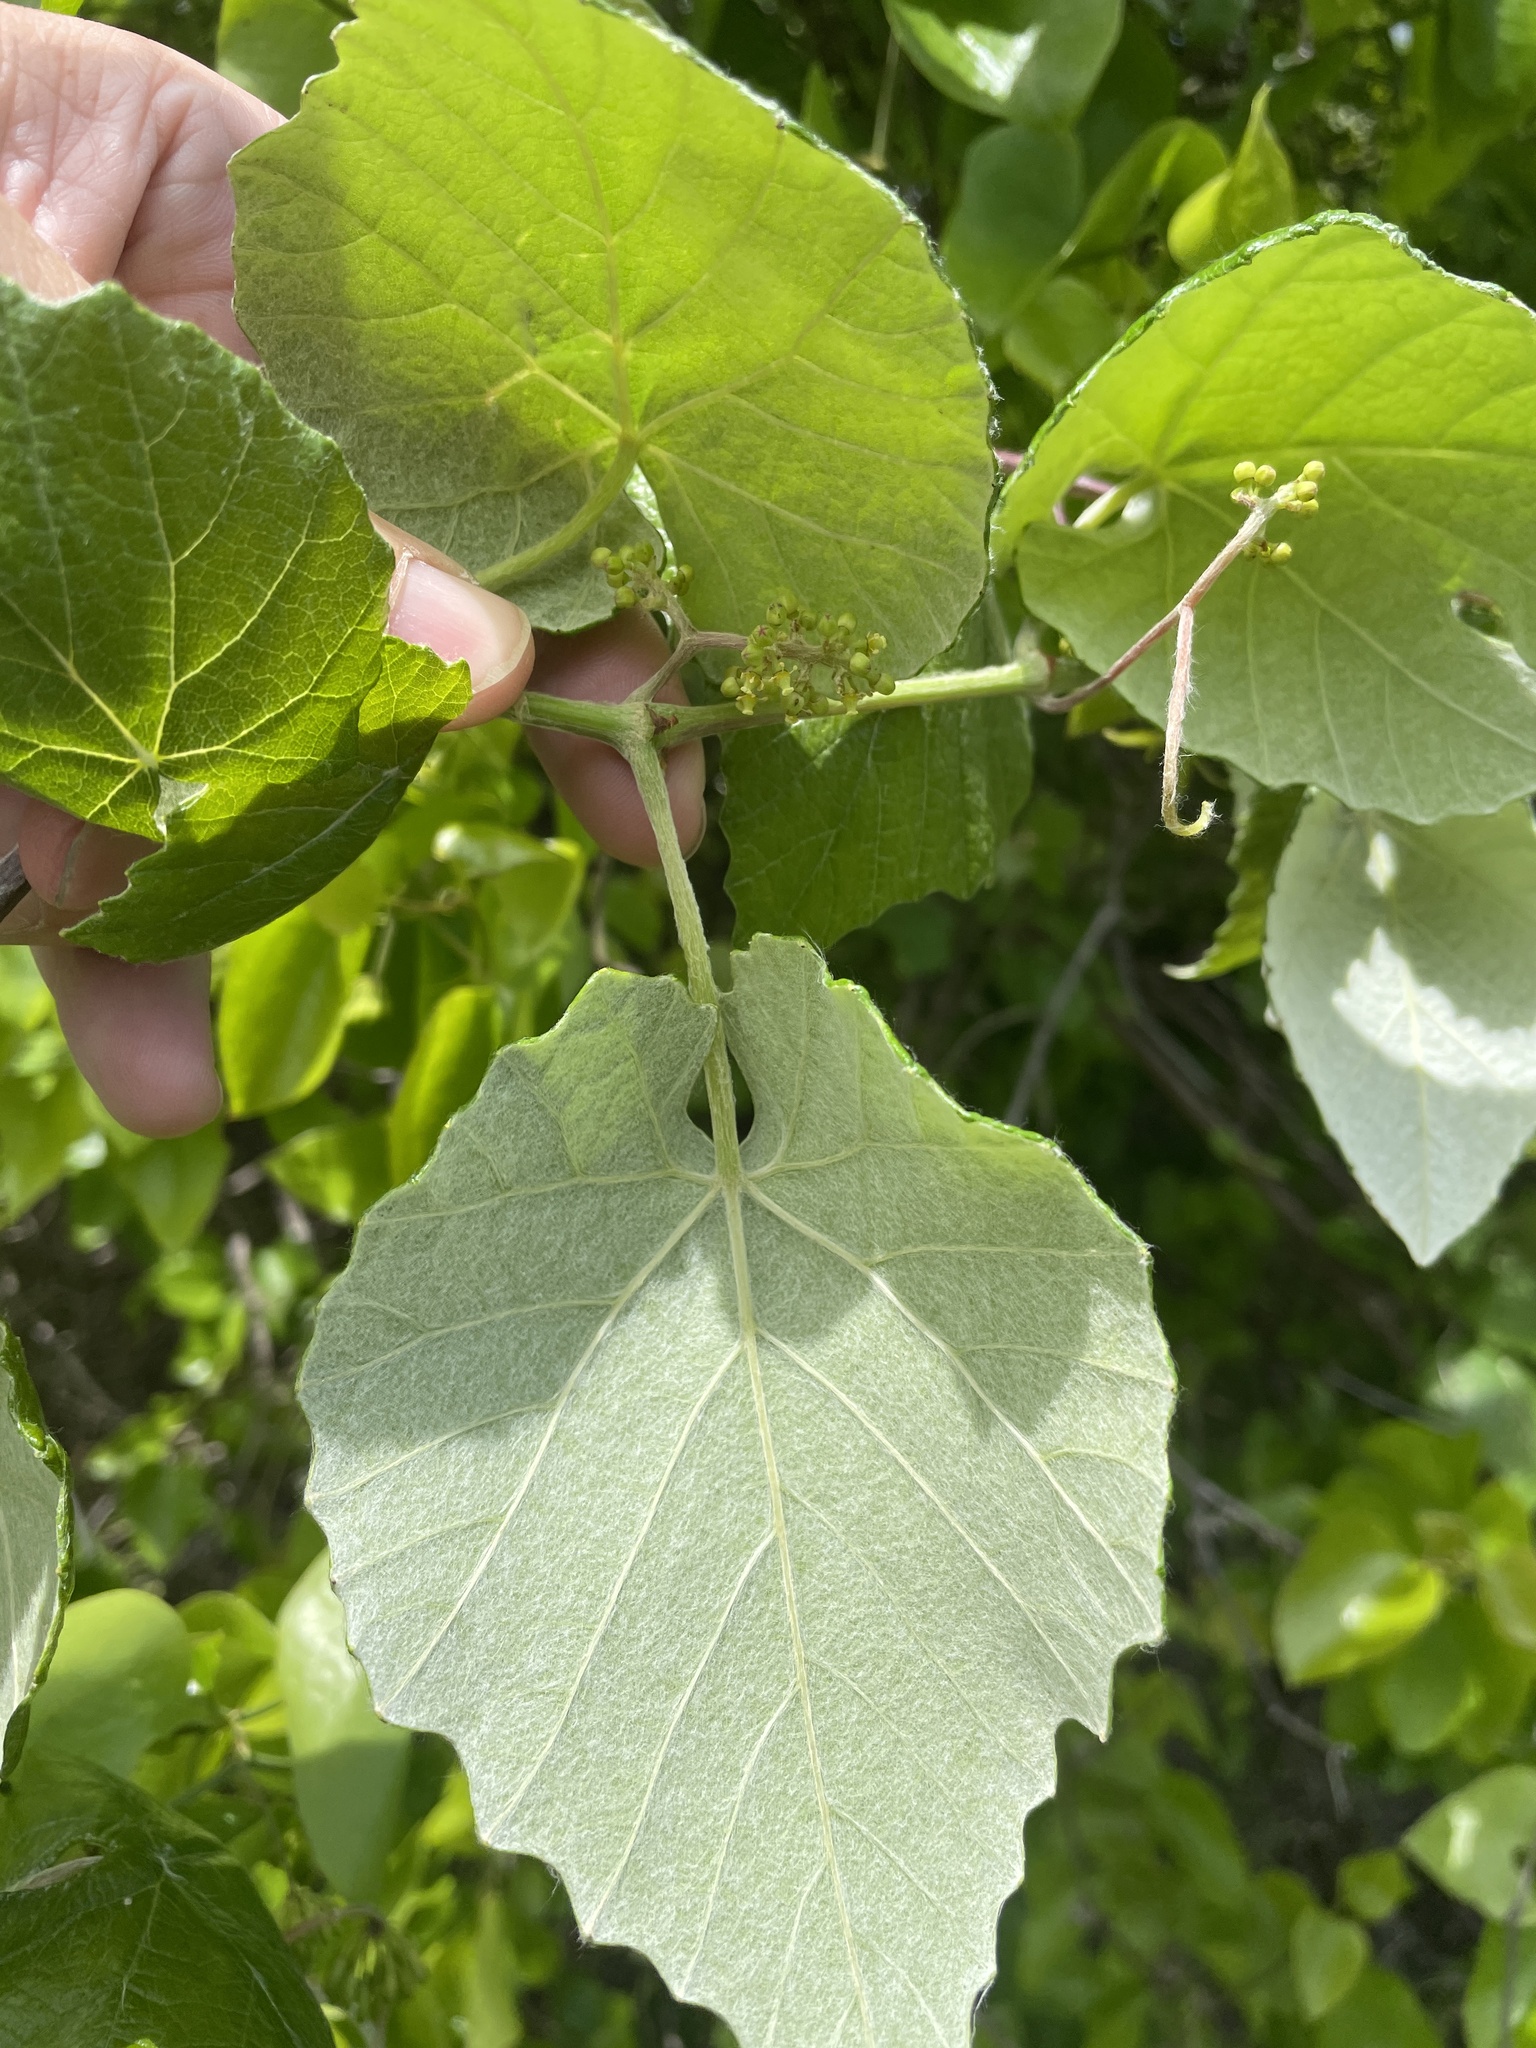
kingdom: Plantae
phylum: Tracheophyta
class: Magnoliopsida
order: Vitales
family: Vitaceae
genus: Vitis
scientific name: Vitis mustangensis
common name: Mustang grape
